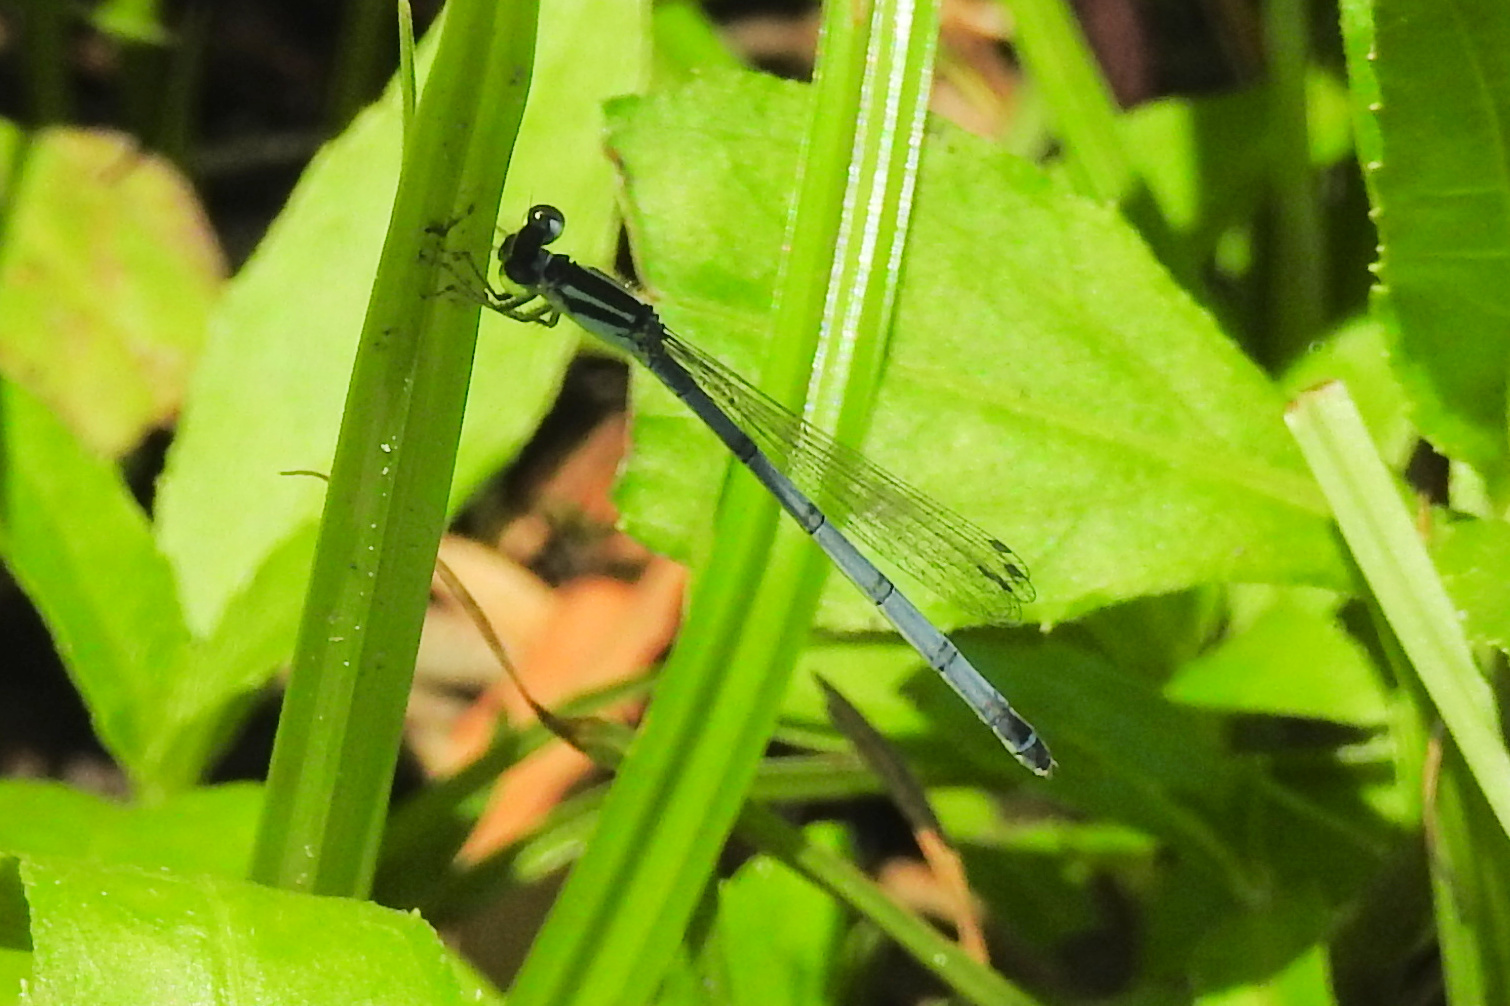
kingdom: Animalia
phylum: Arthropoda
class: Insecta
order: Odonata
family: Coenagrionidae
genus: Ischnura
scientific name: Ischnura verticalis
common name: Eastern forktail
